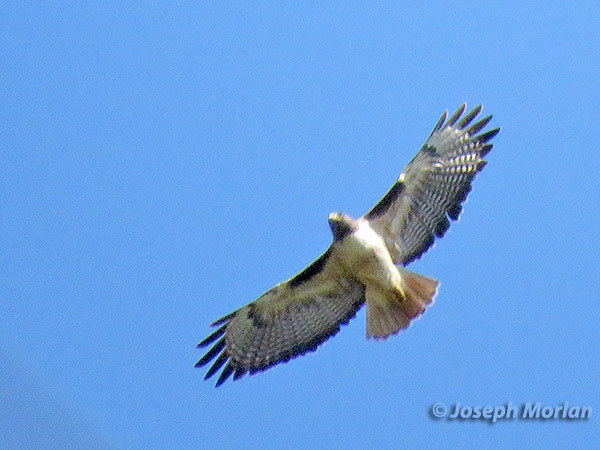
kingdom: Animalia
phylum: Chordata
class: Aves
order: Accipitriformes
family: Accipitridae
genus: Buteo
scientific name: Buteo jamaicensis
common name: Red-tailed hawk
